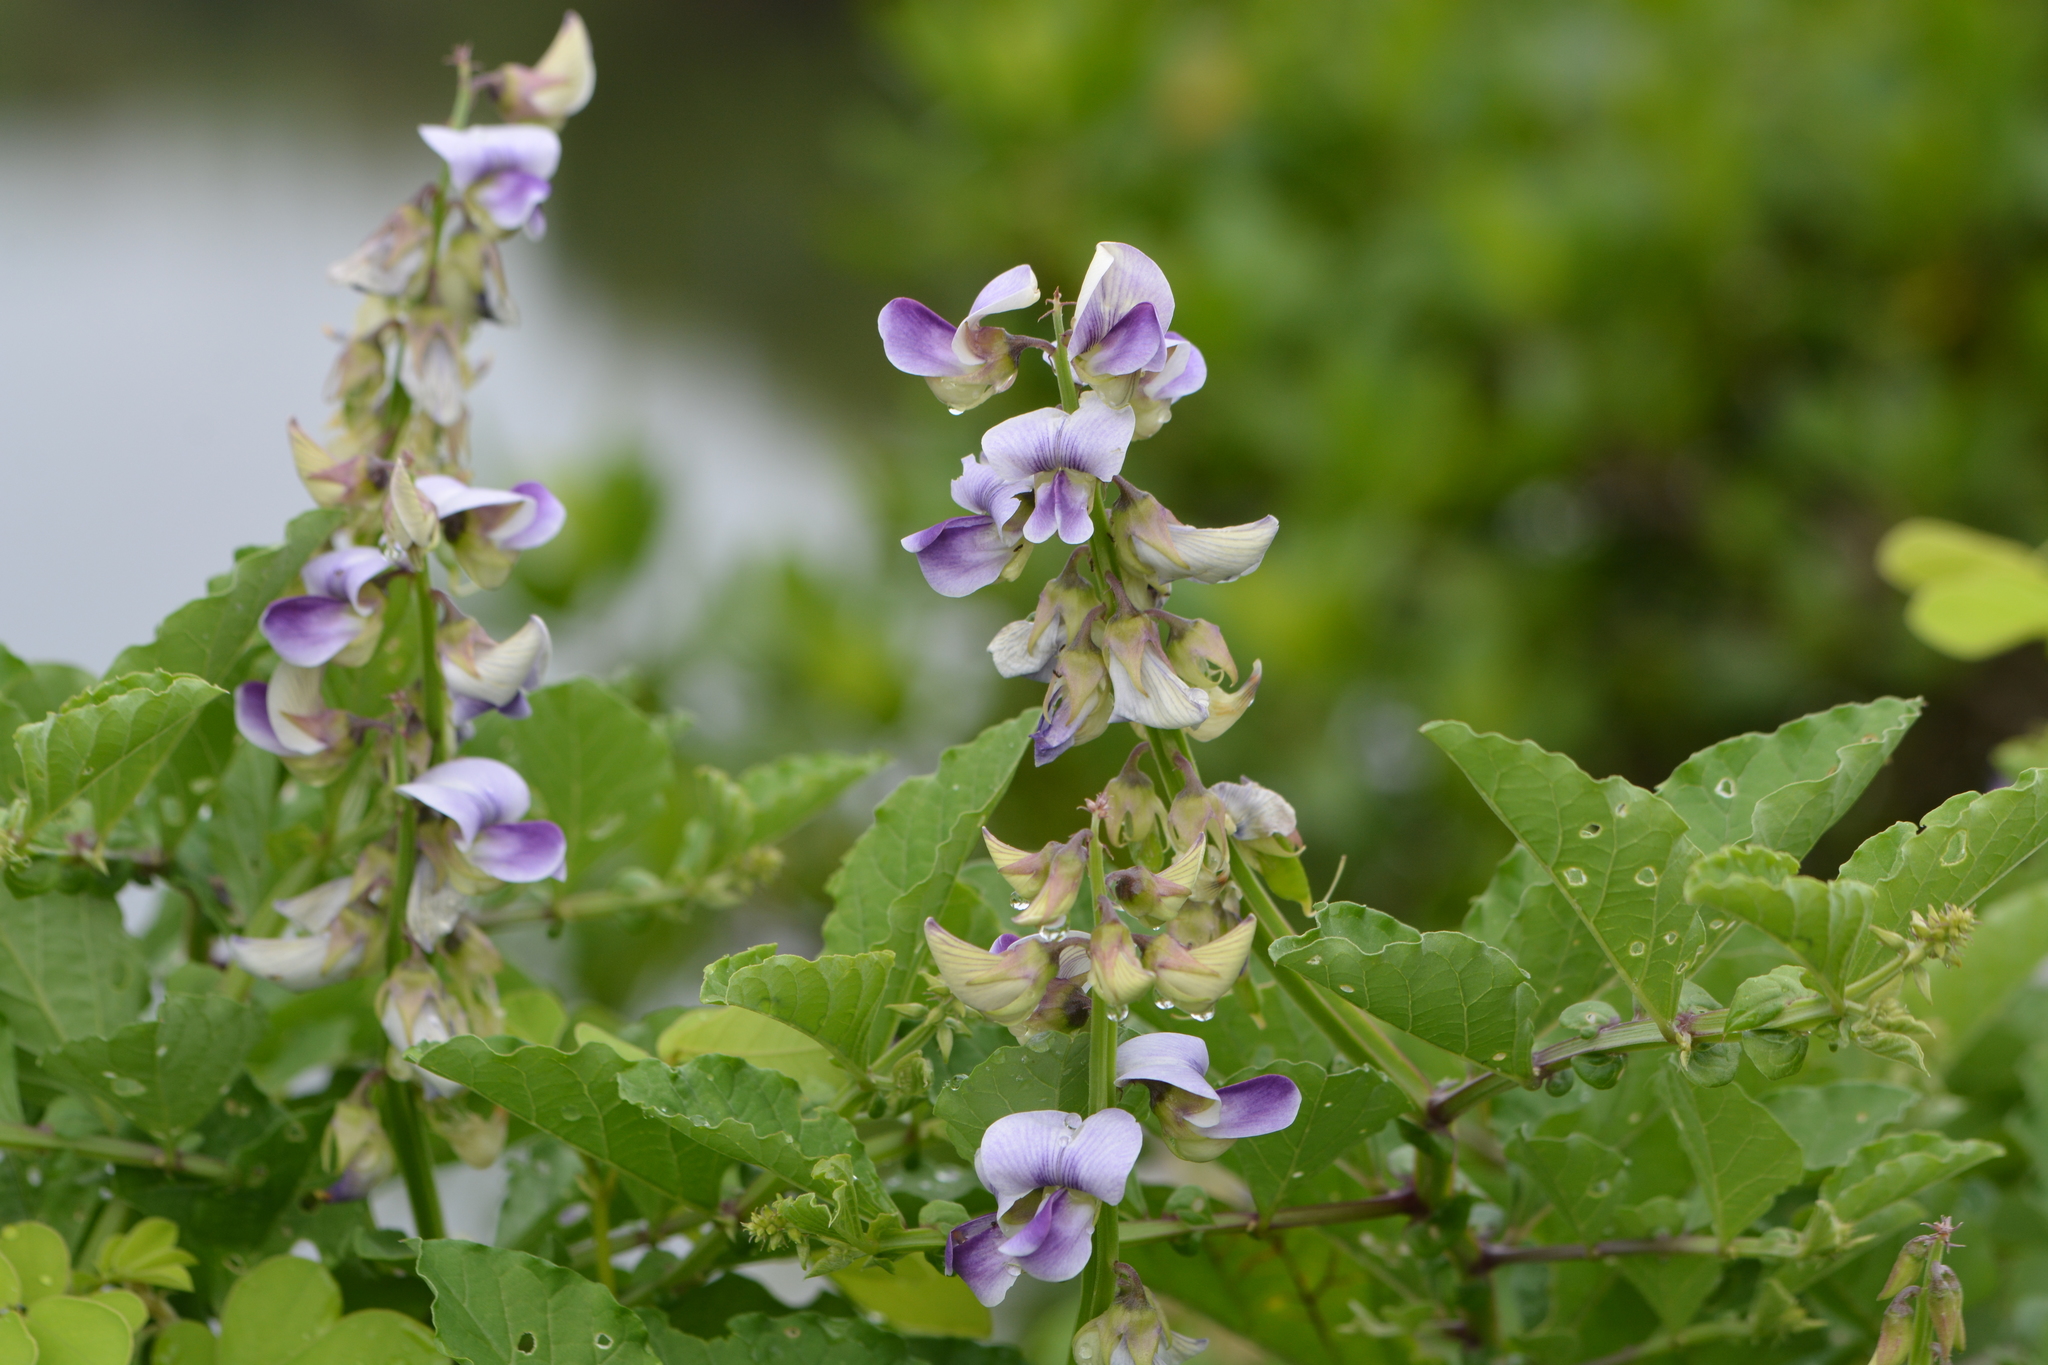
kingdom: Plantae
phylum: Tracheophyta
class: Magnoliopsida
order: Fabales
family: Fabaceae
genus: Crotalaria
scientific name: Crotalaria verrucosa
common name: Blue rattlesnake
